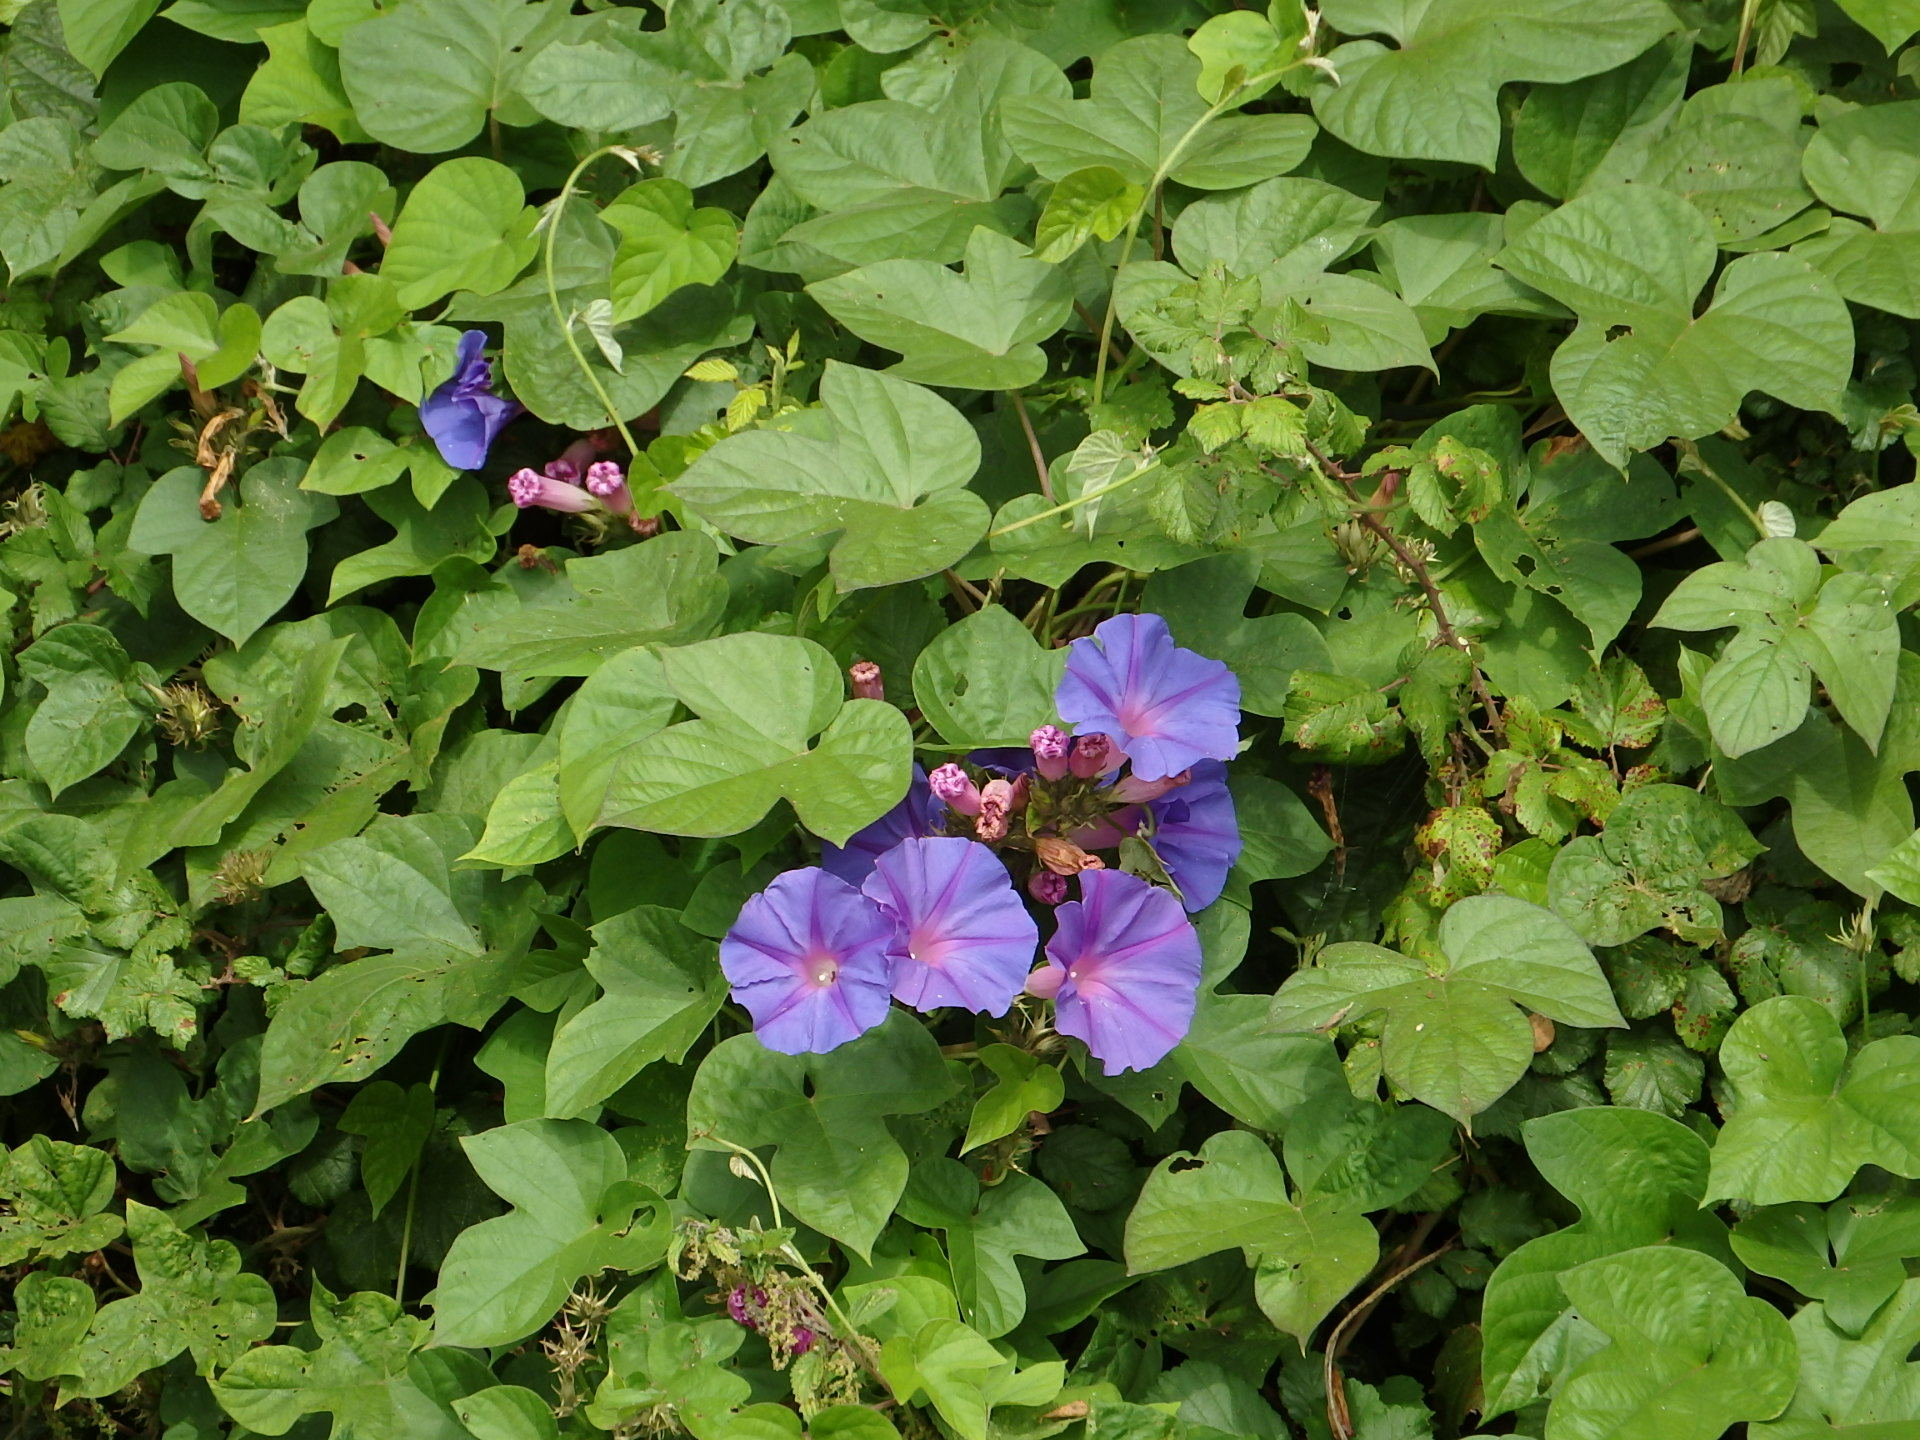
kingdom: Plantae
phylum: Tracheophyta
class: Magnoliopsida
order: Solanales
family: Convolvulaceae
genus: Ipomoea
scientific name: Ipomoea indica
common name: Blue dawnflower
